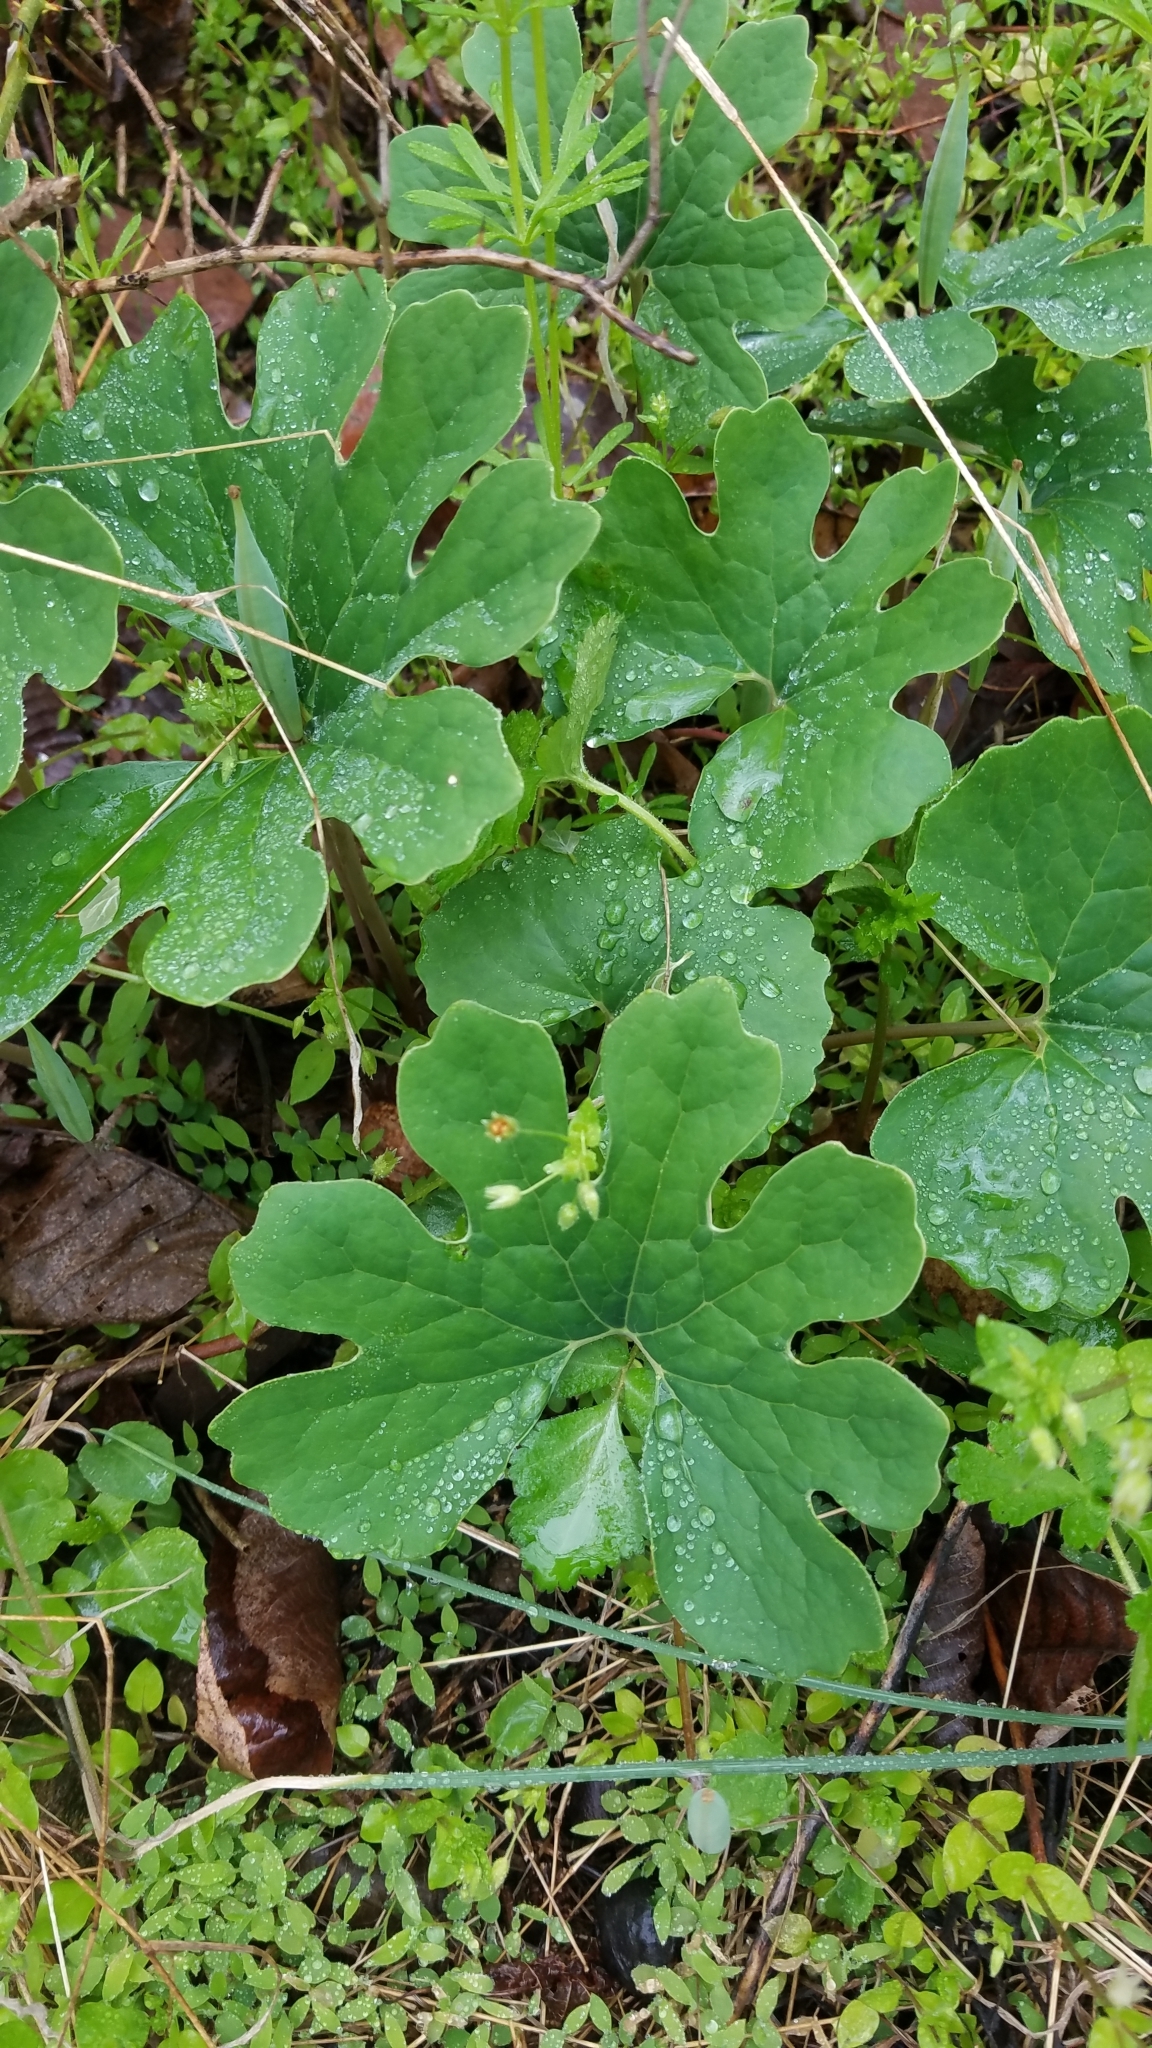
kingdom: Plantae
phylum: Tracheophyta
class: Magnoliopsida
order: Ranunculales
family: Papaveraceae
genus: Sanguinaria
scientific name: Sanguinaria canadensis
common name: Bloodroot
